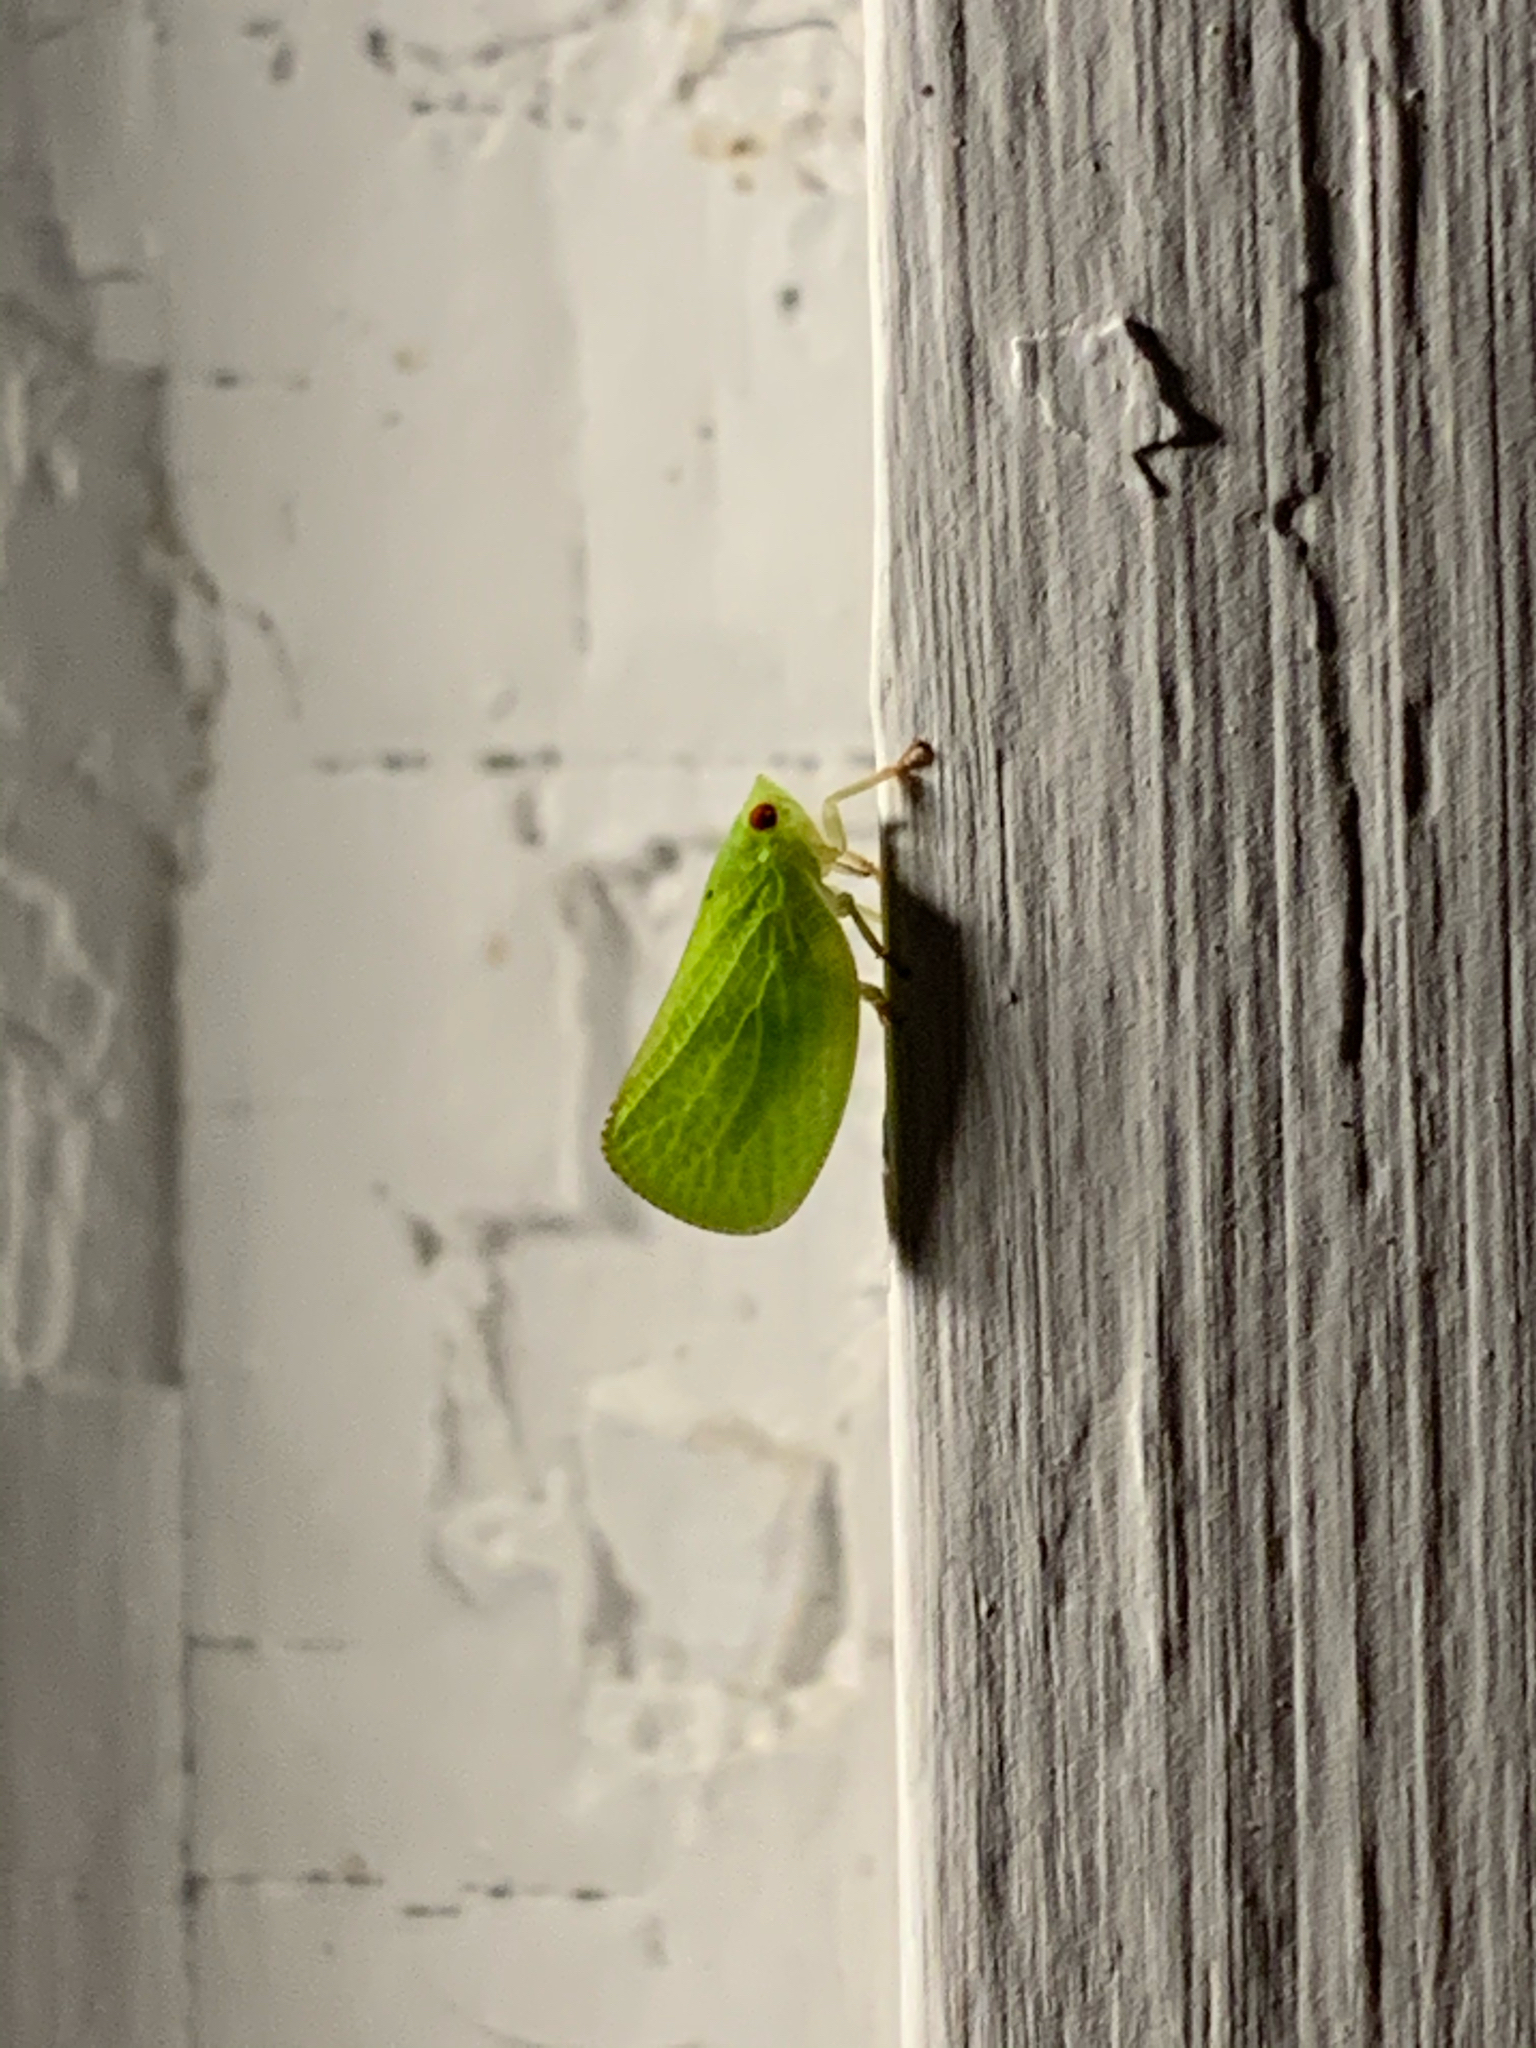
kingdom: Animalia
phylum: Arthropoda
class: Insecta
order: Hemiptera
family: Acanaloniidae
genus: Acanalonia
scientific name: Acanalonia conica
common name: Green cone-headed planthopper
